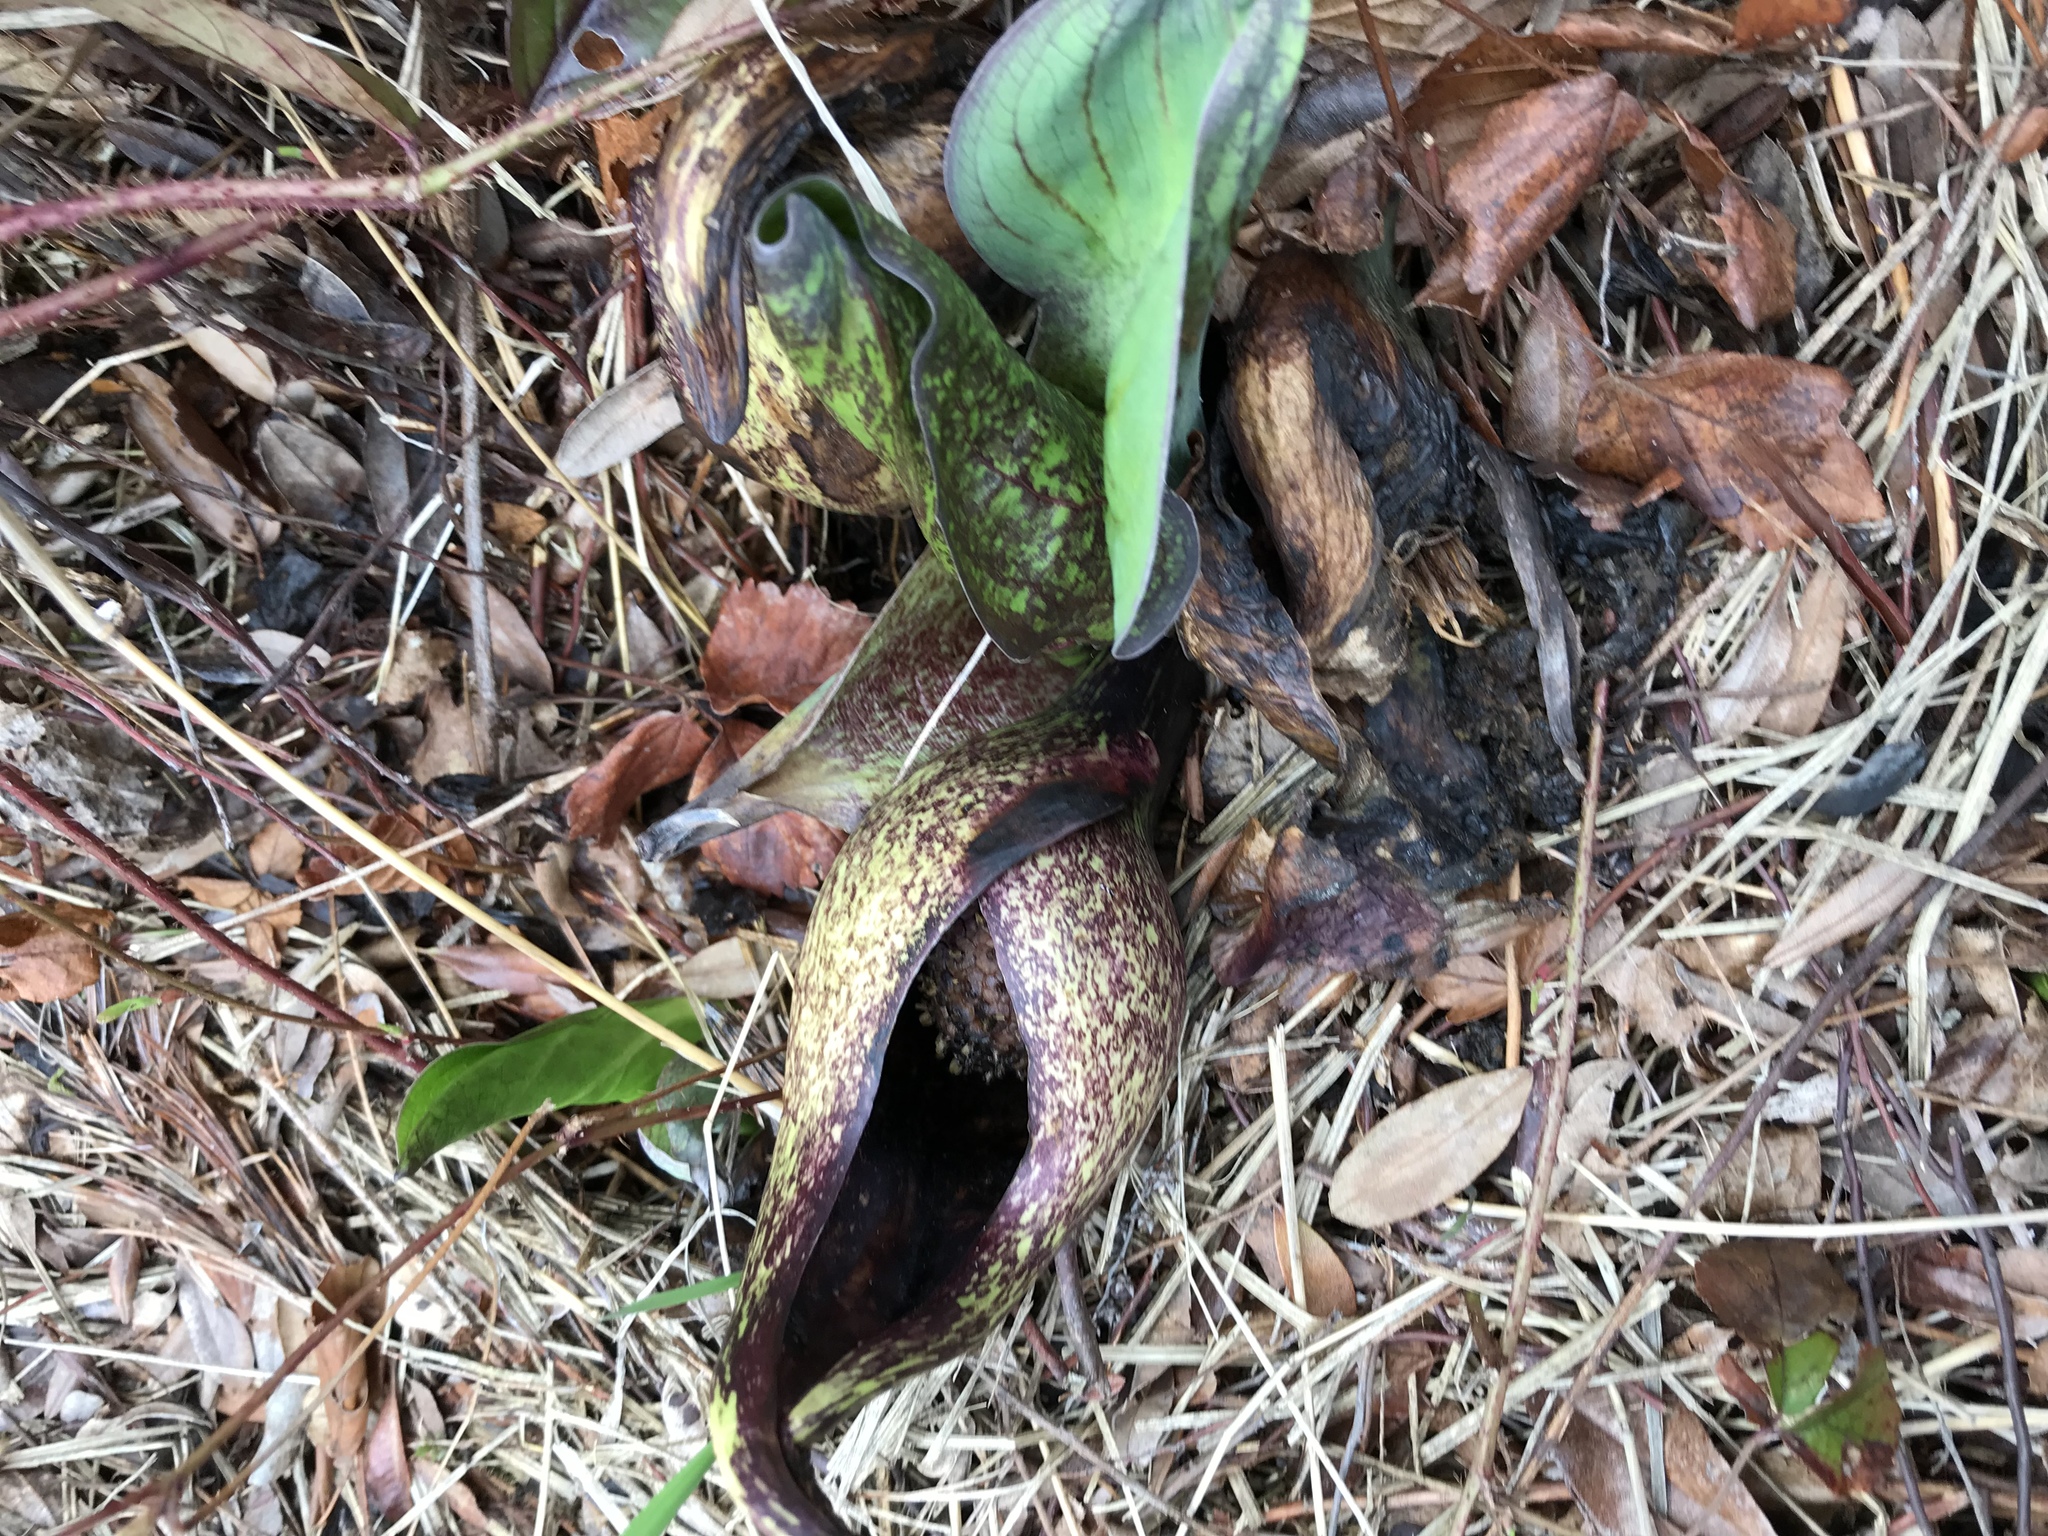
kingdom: Plantae
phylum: Tracheophyta
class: Liliopsida
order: Alismatales
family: Araceae
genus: Symplocarpus
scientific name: Symplocarpus foetidus
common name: Eastern skunk cabbage
